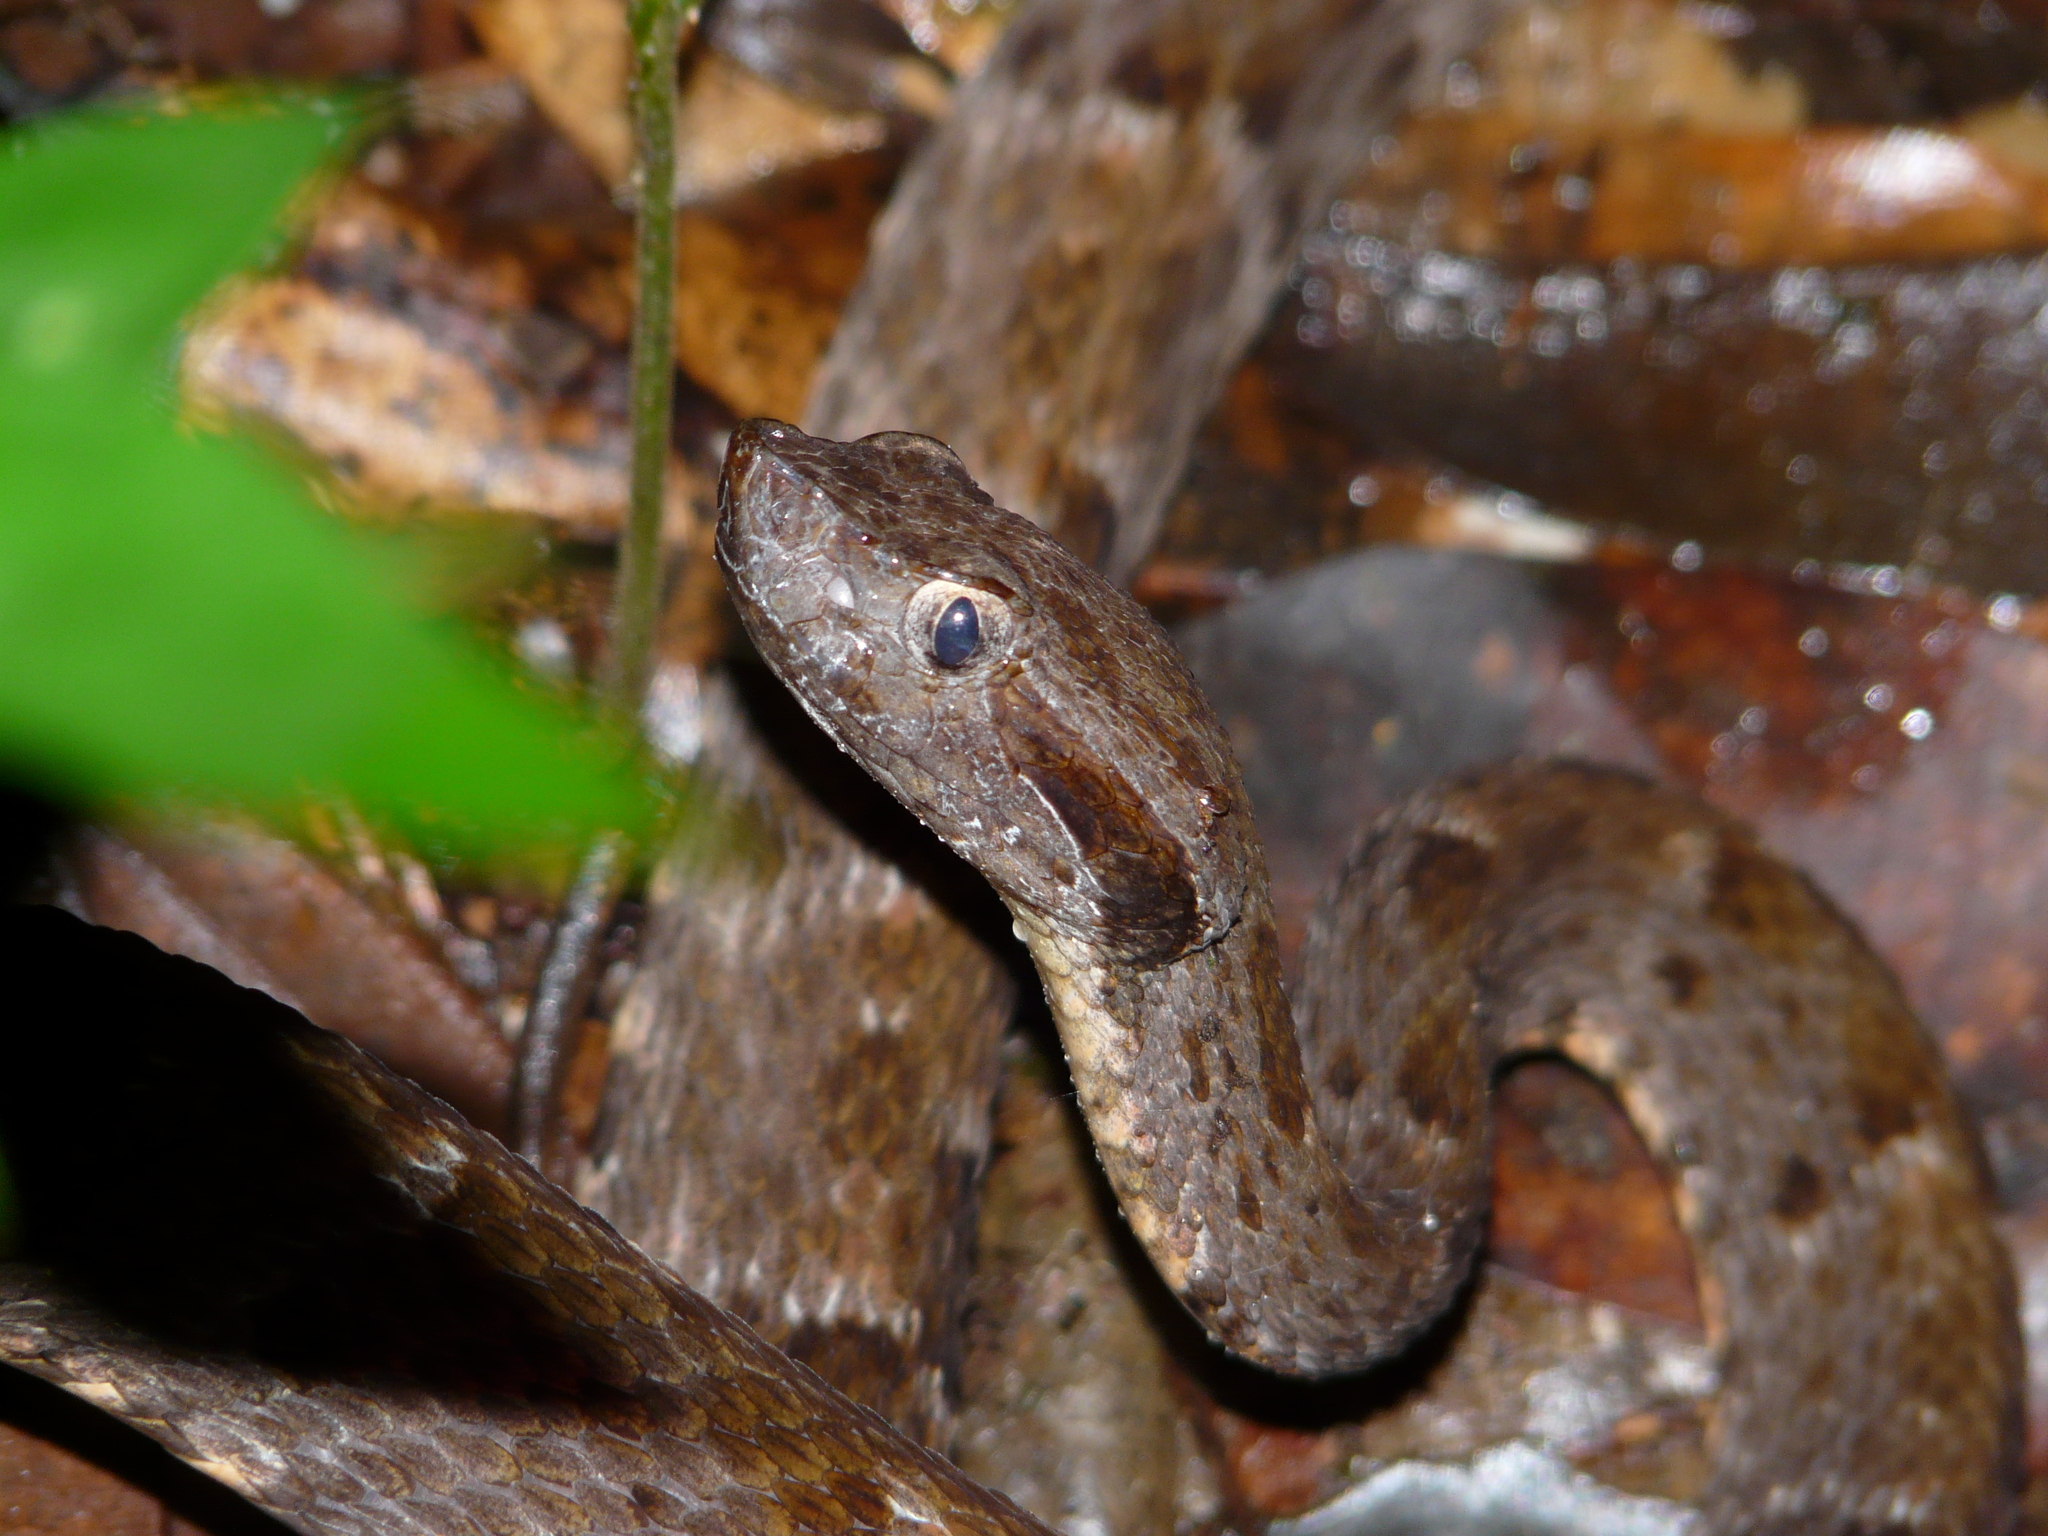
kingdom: Animalia
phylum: Chordata
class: Squamata
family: Viperidae
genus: Bothrops
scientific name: Bothrops atrox
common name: Common lancehead
